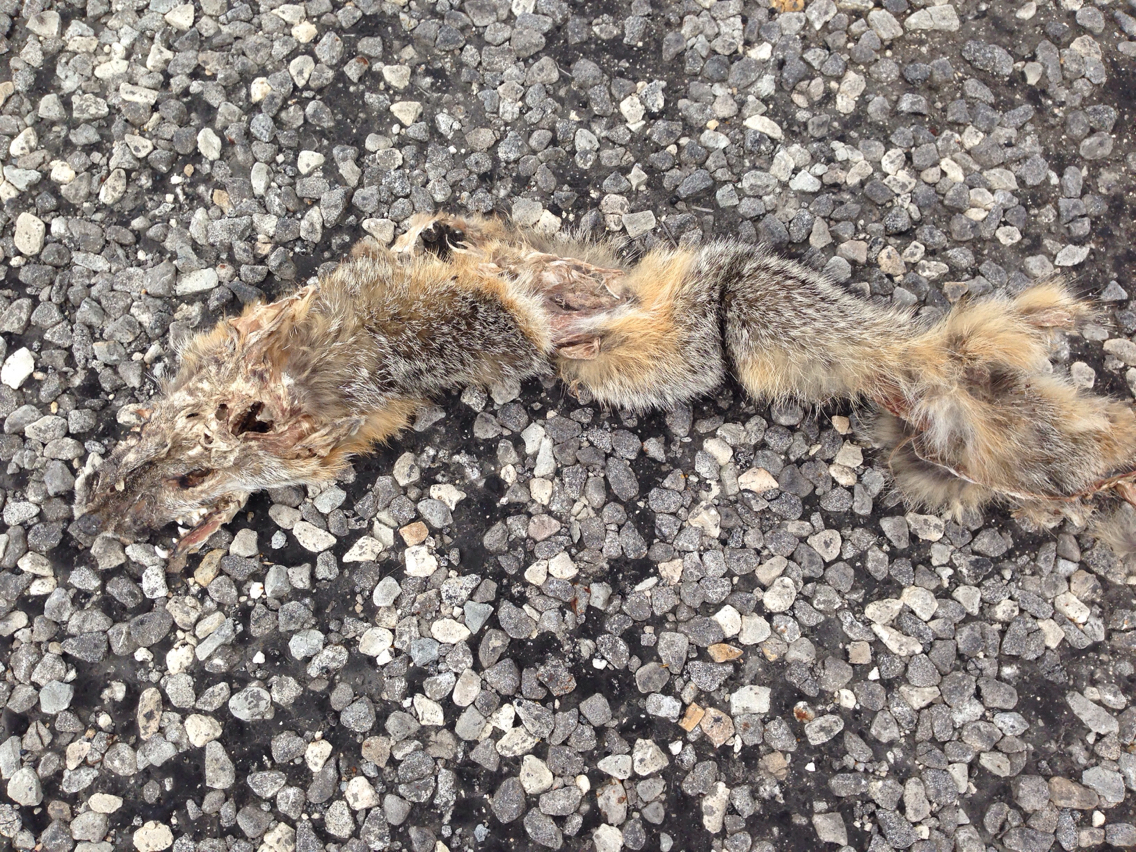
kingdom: Animalia
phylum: Chordata
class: Mammalia
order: Carnivora
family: Canidae
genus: Urocyon
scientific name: Urocyon cinereoargenteus
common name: Gray fox
